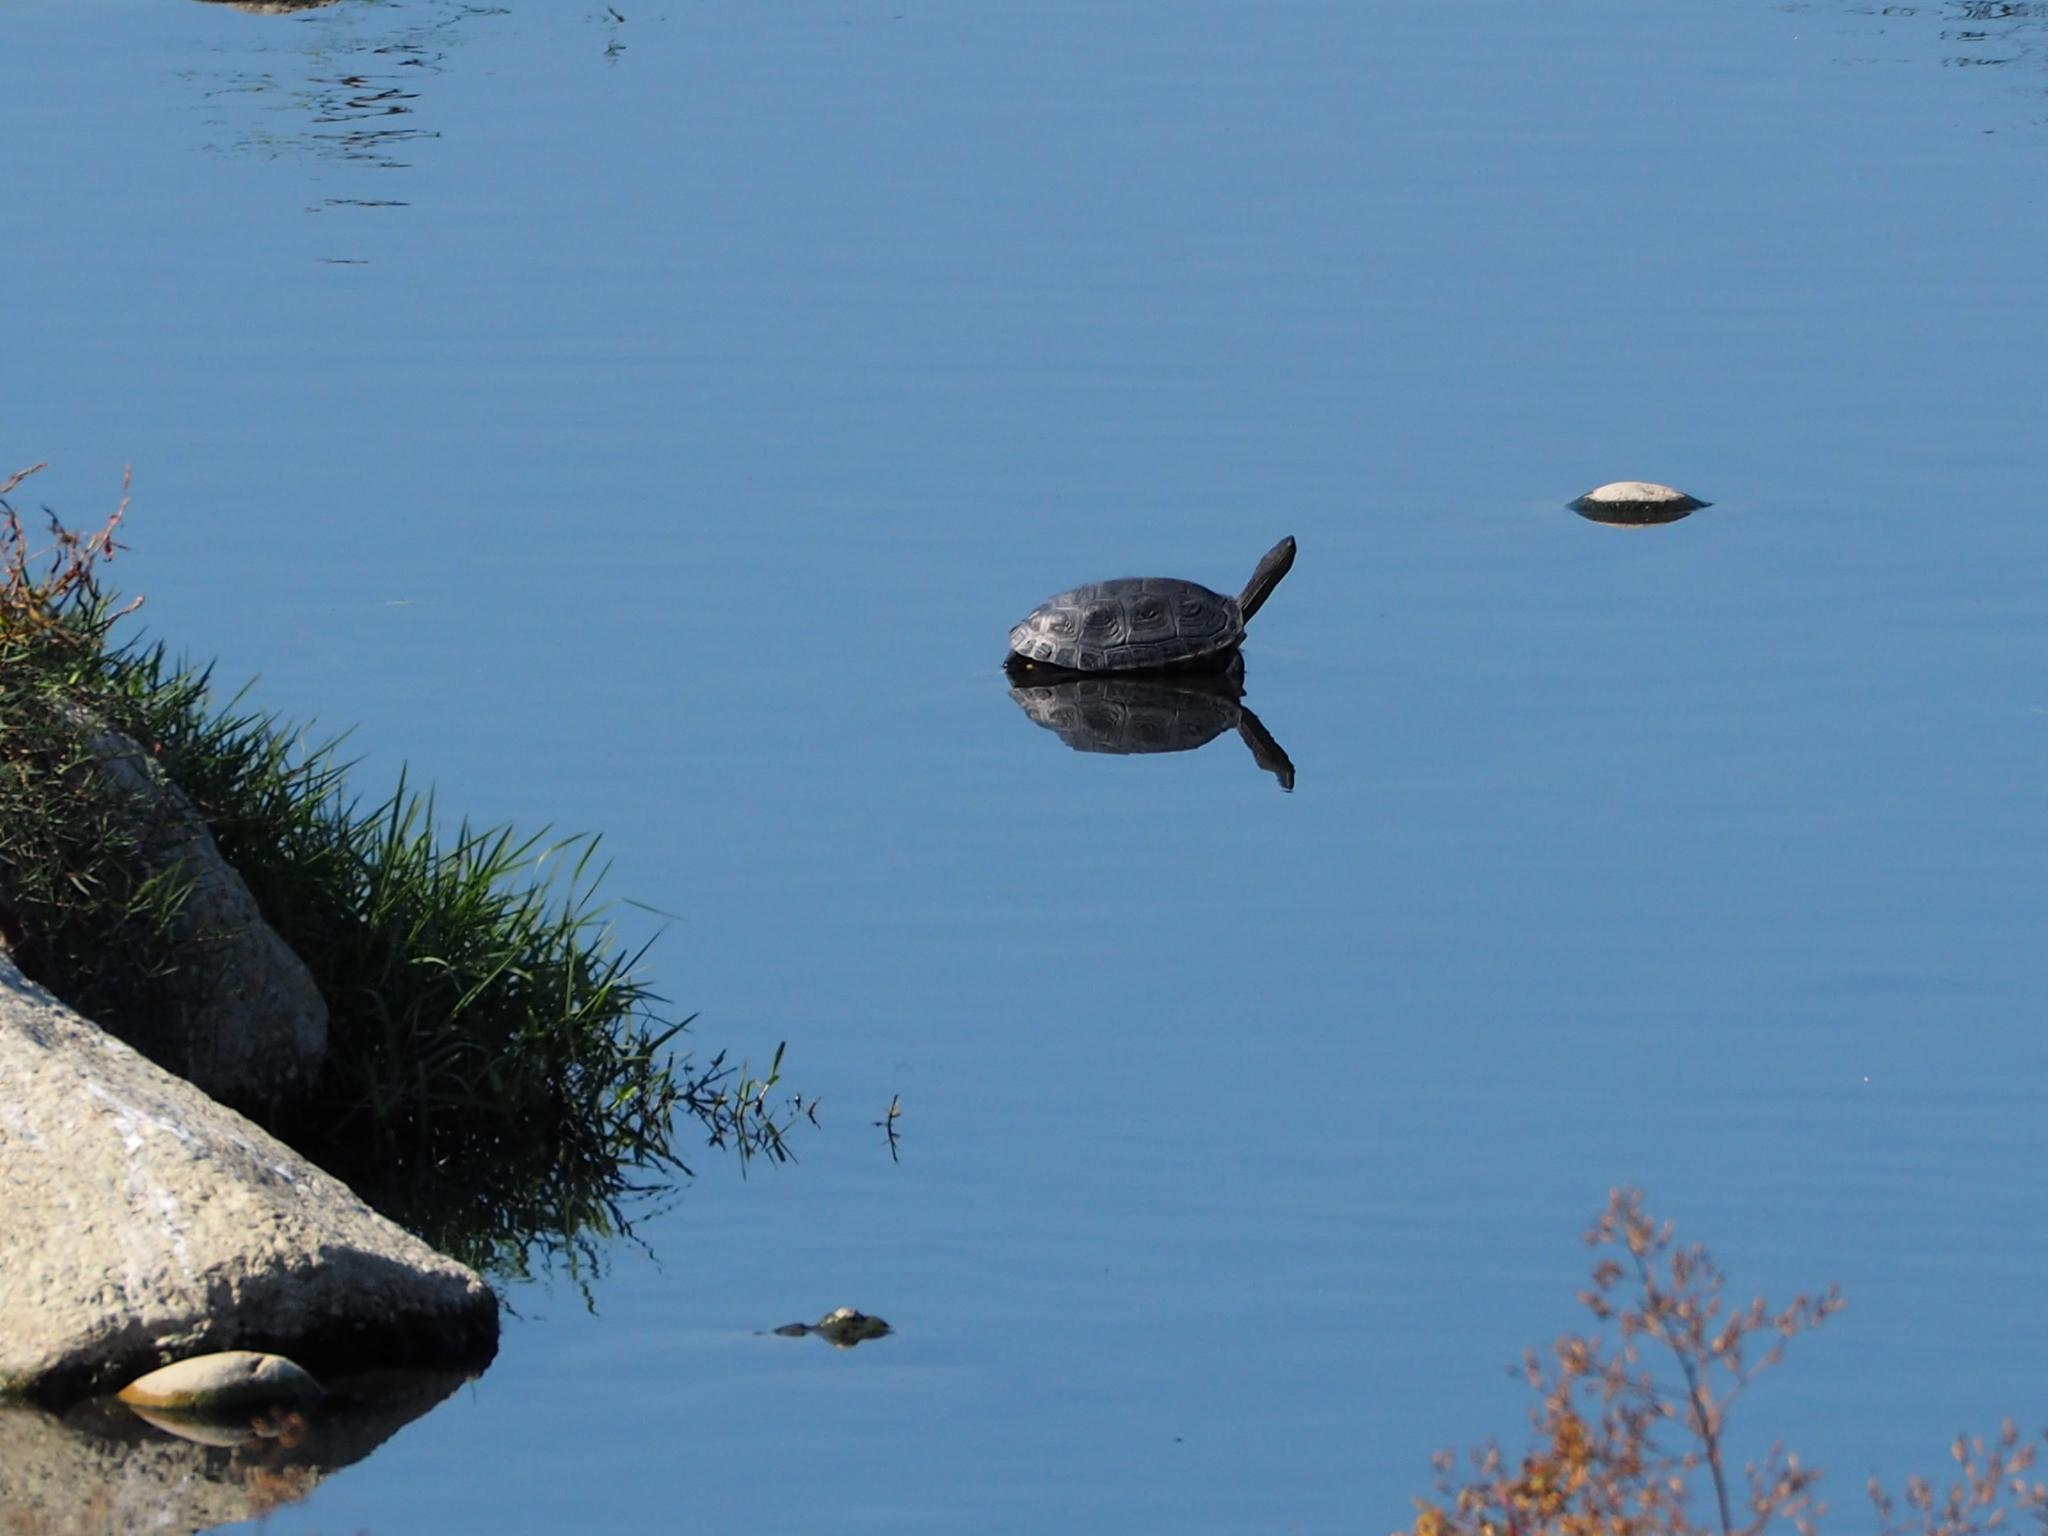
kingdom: Animalia
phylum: Chordata
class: Testudines
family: Geoemydidae
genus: Mauremys
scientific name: Mauremys sinensis
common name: Chinese stripe-necked turtle
